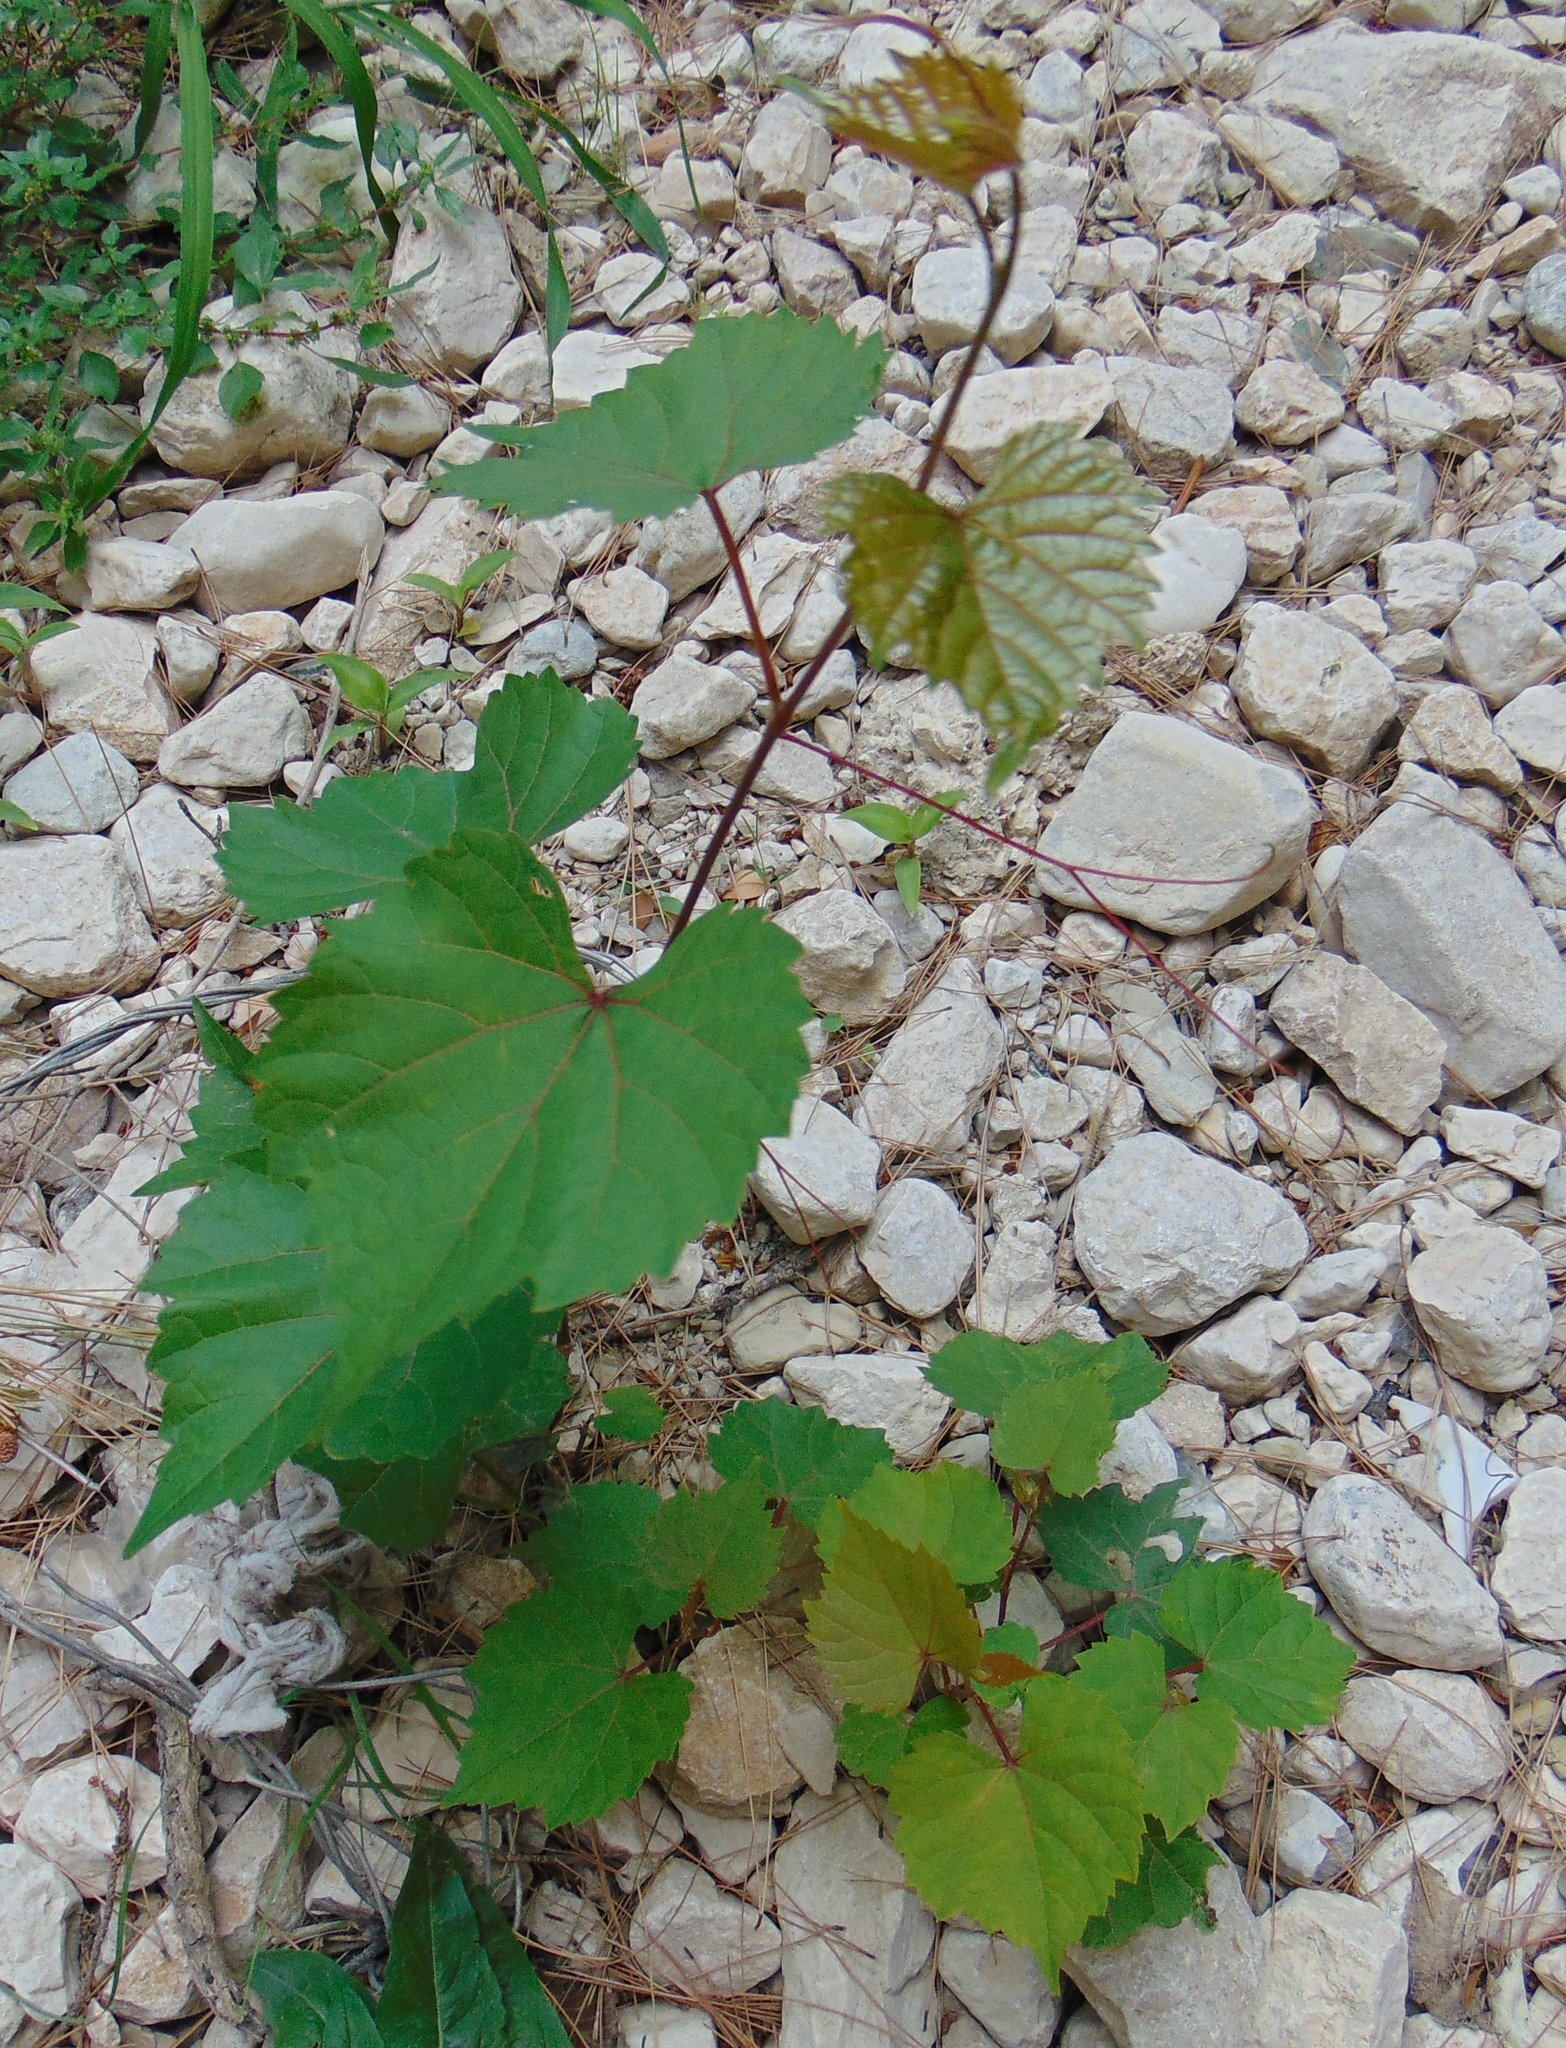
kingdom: Plantae
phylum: Tracheophyta
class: Magnoliopsida
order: Vitales
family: Vitaceae
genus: Vitis
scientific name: Vitis gmelinii
